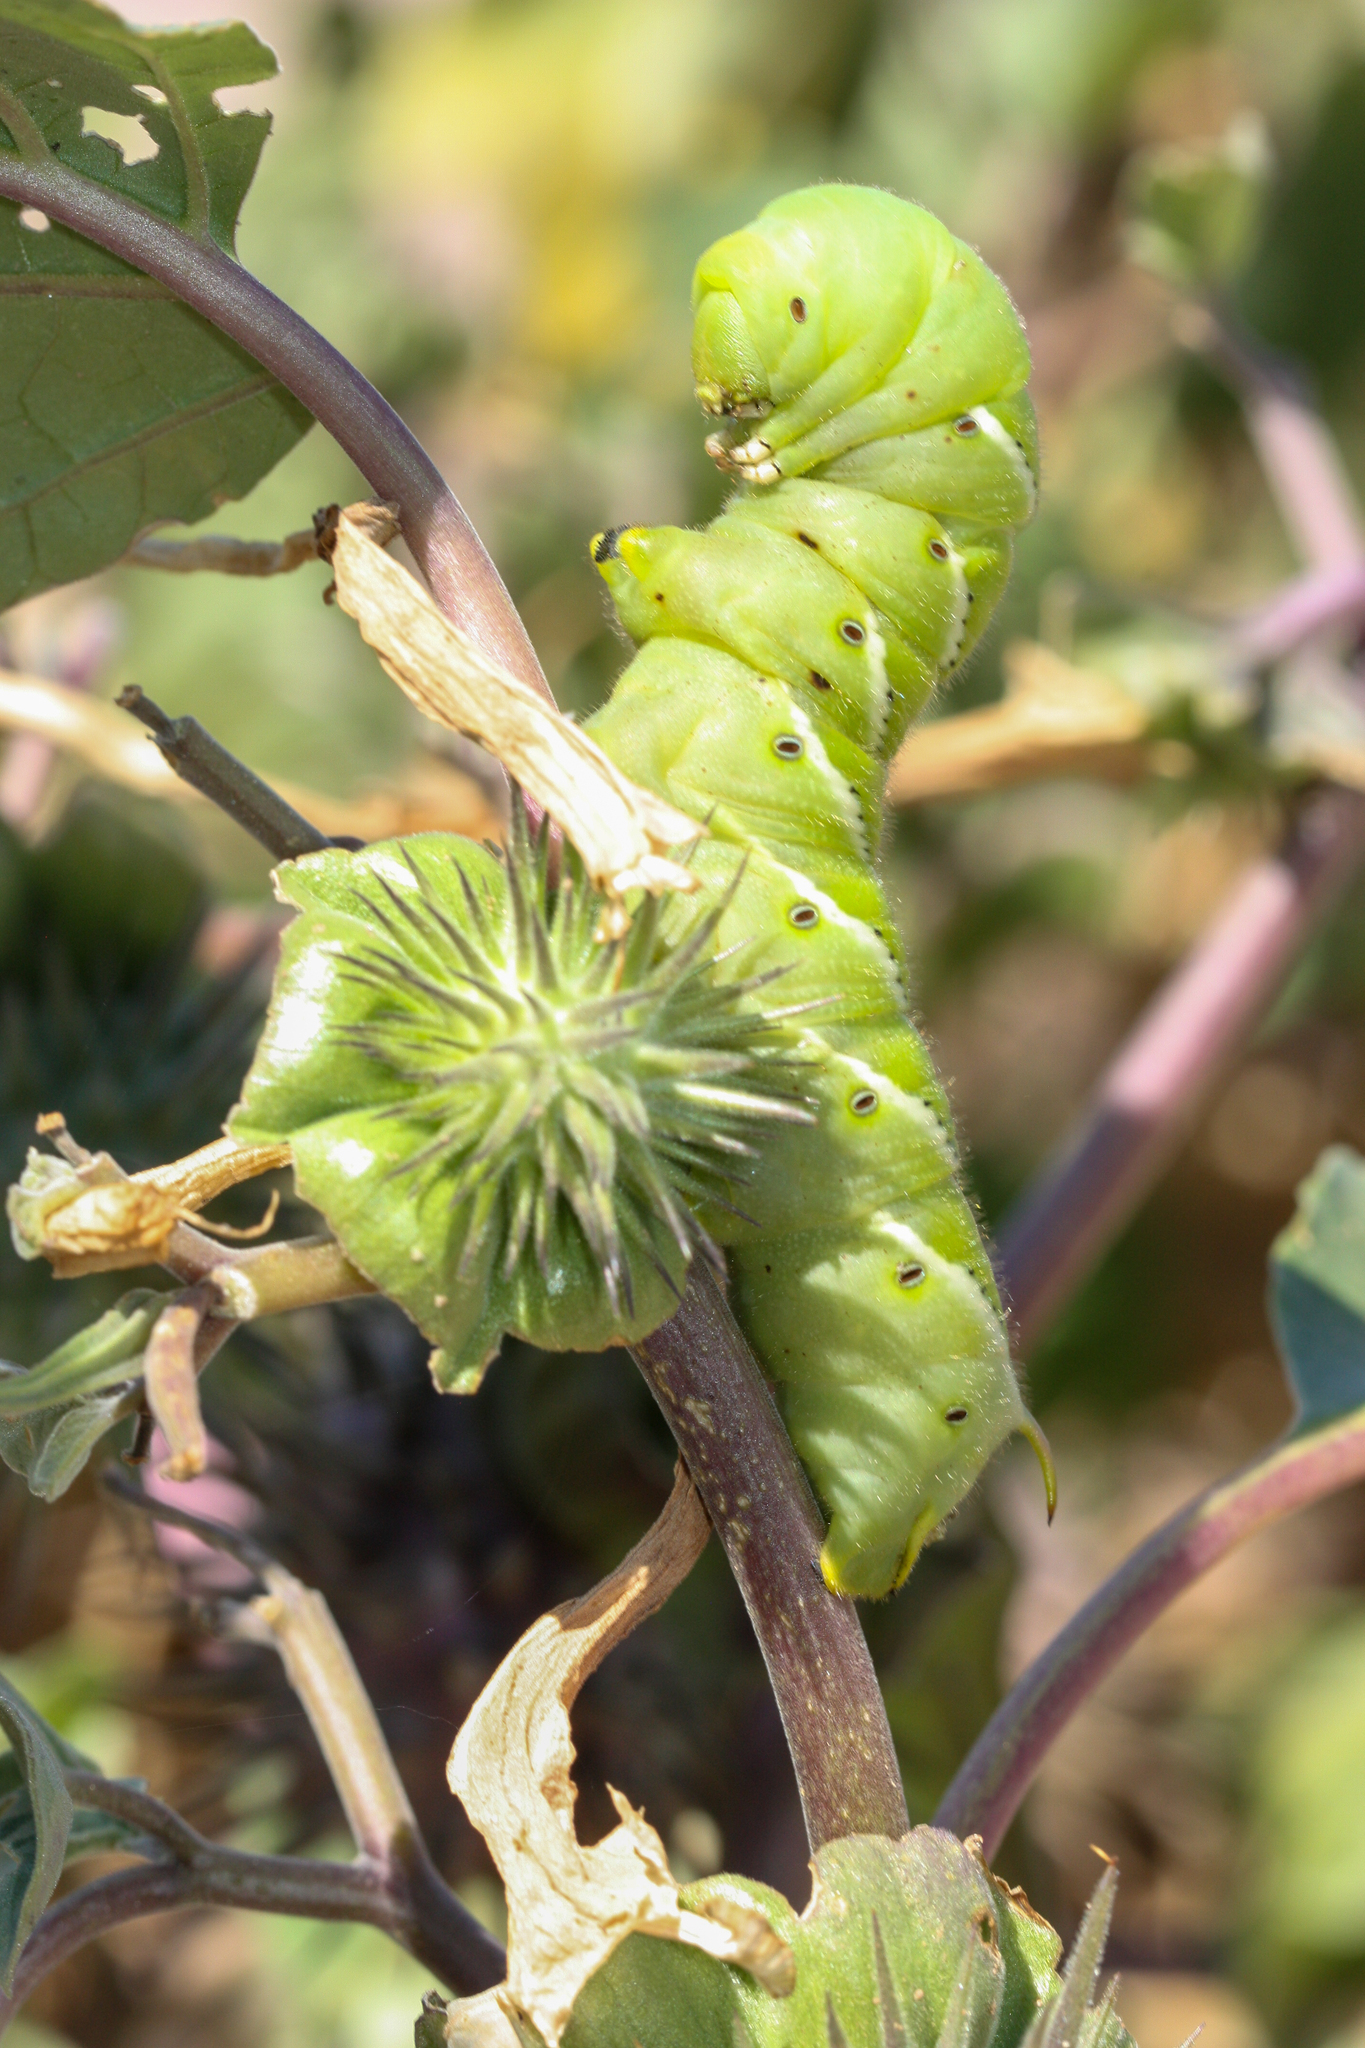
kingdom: Animalia
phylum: Arthropoda
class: Insecta
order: Lepidoptera
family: Sphingidae
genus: Manduca
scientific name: Manduca sexta
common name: Carolina sphinx
